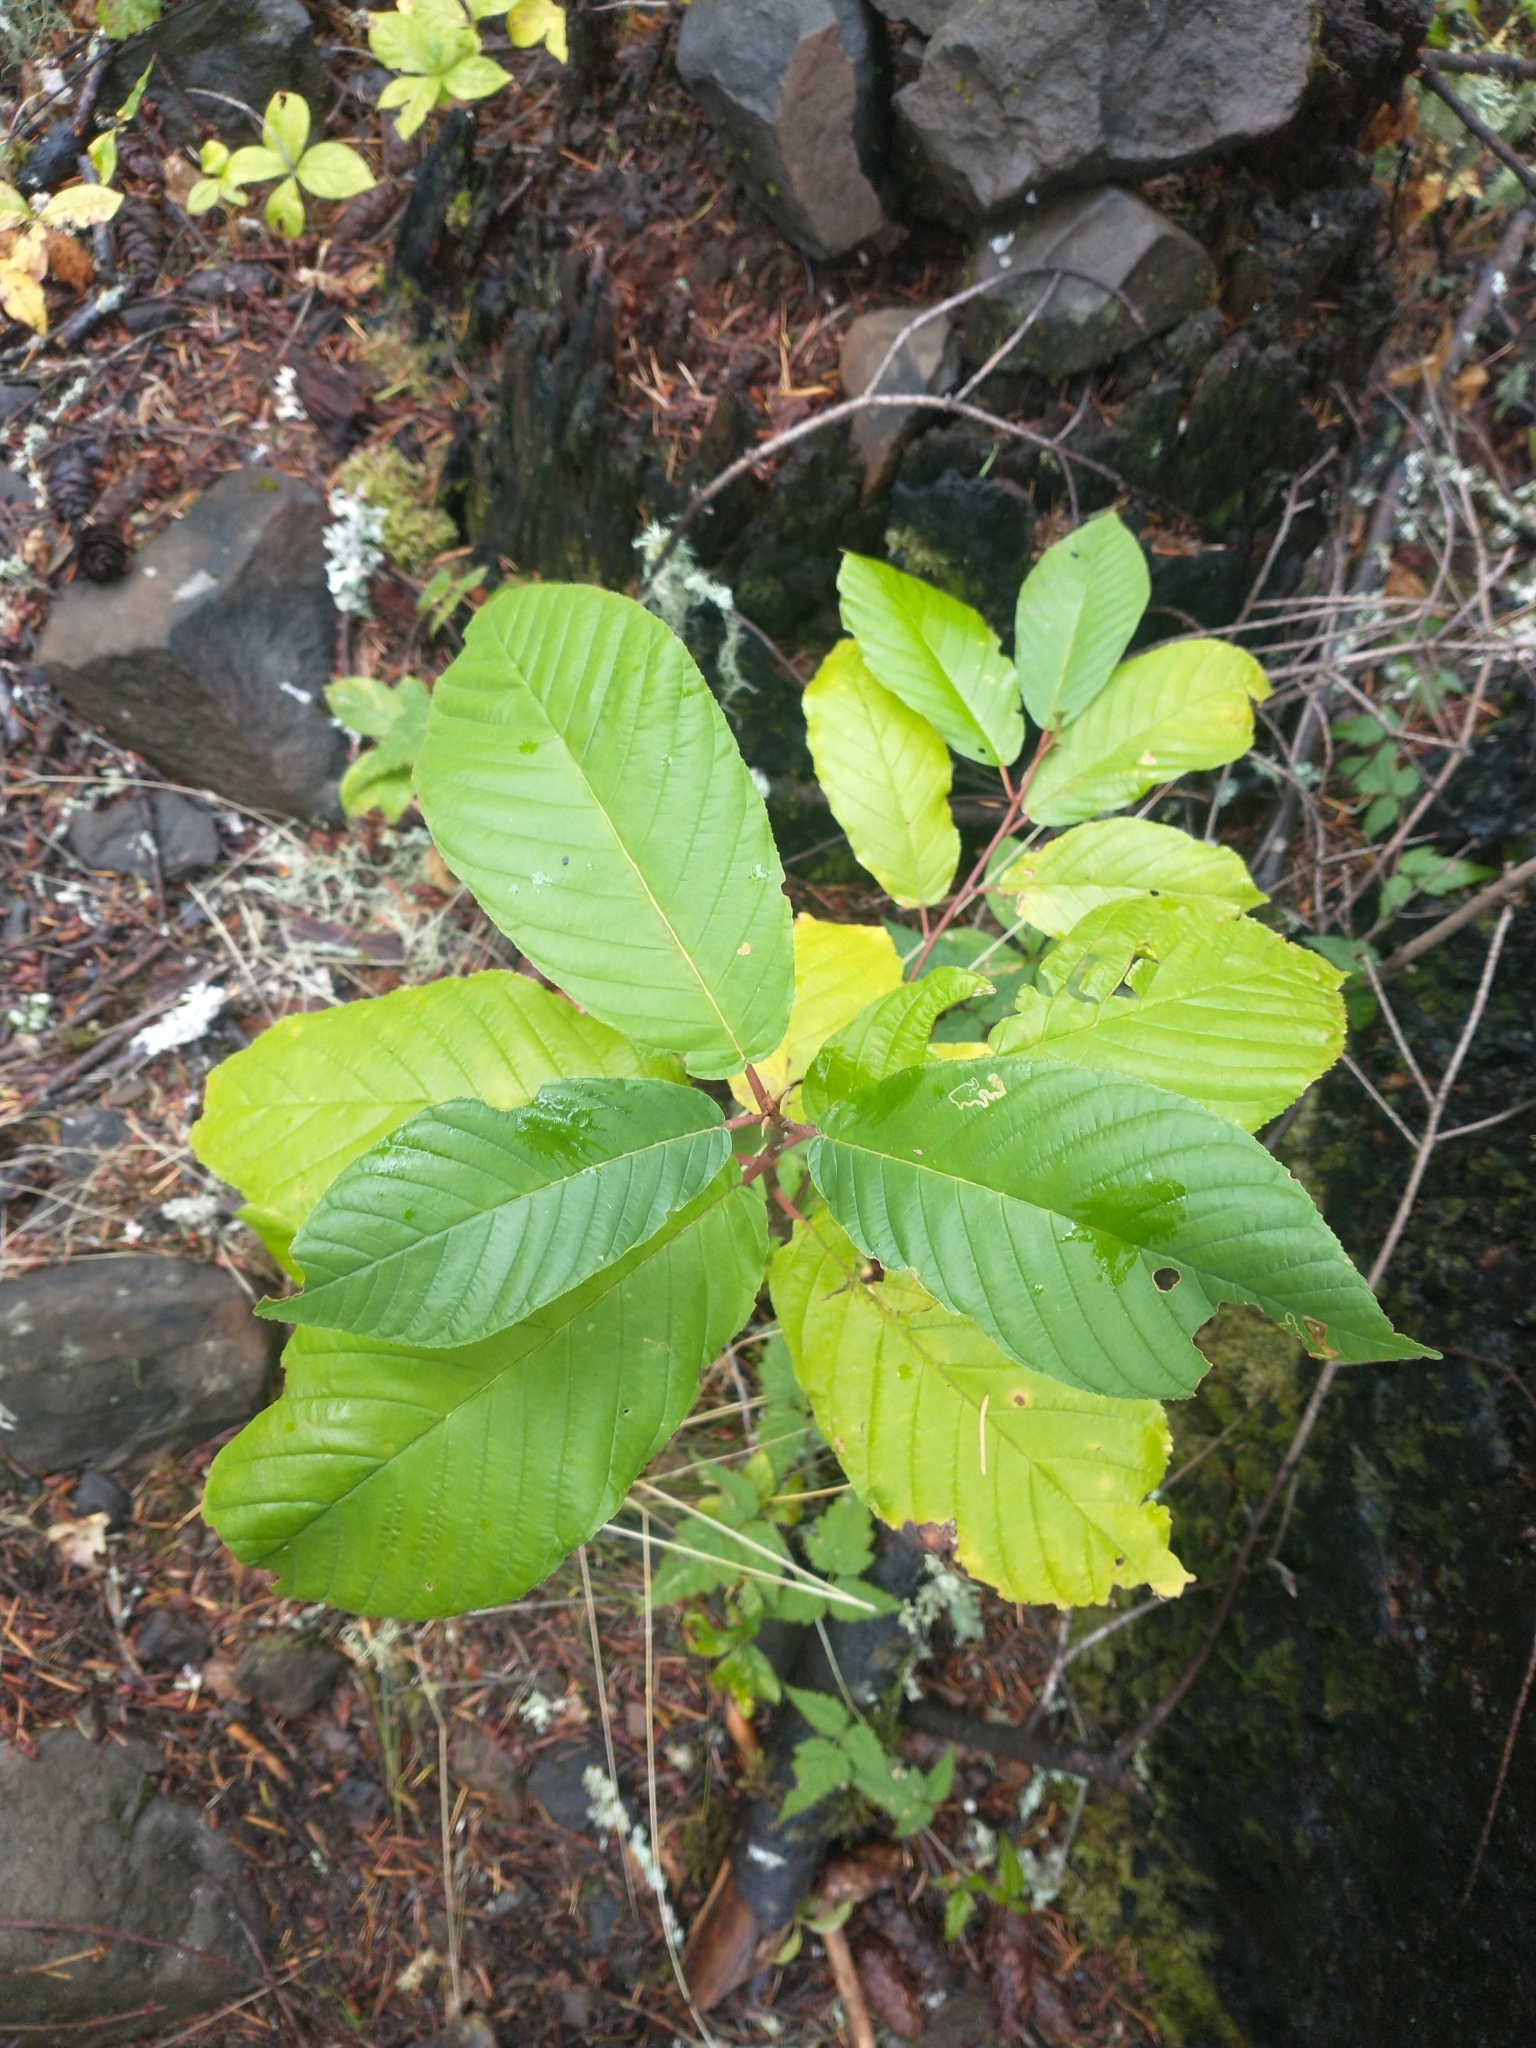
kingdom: Plantae
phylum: Tracheophyta
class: Magnoliopsida
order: Rosales
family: Rhamnaceae
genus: Frangula
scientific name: Frangula purshiana
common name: Cascara buckthorn
